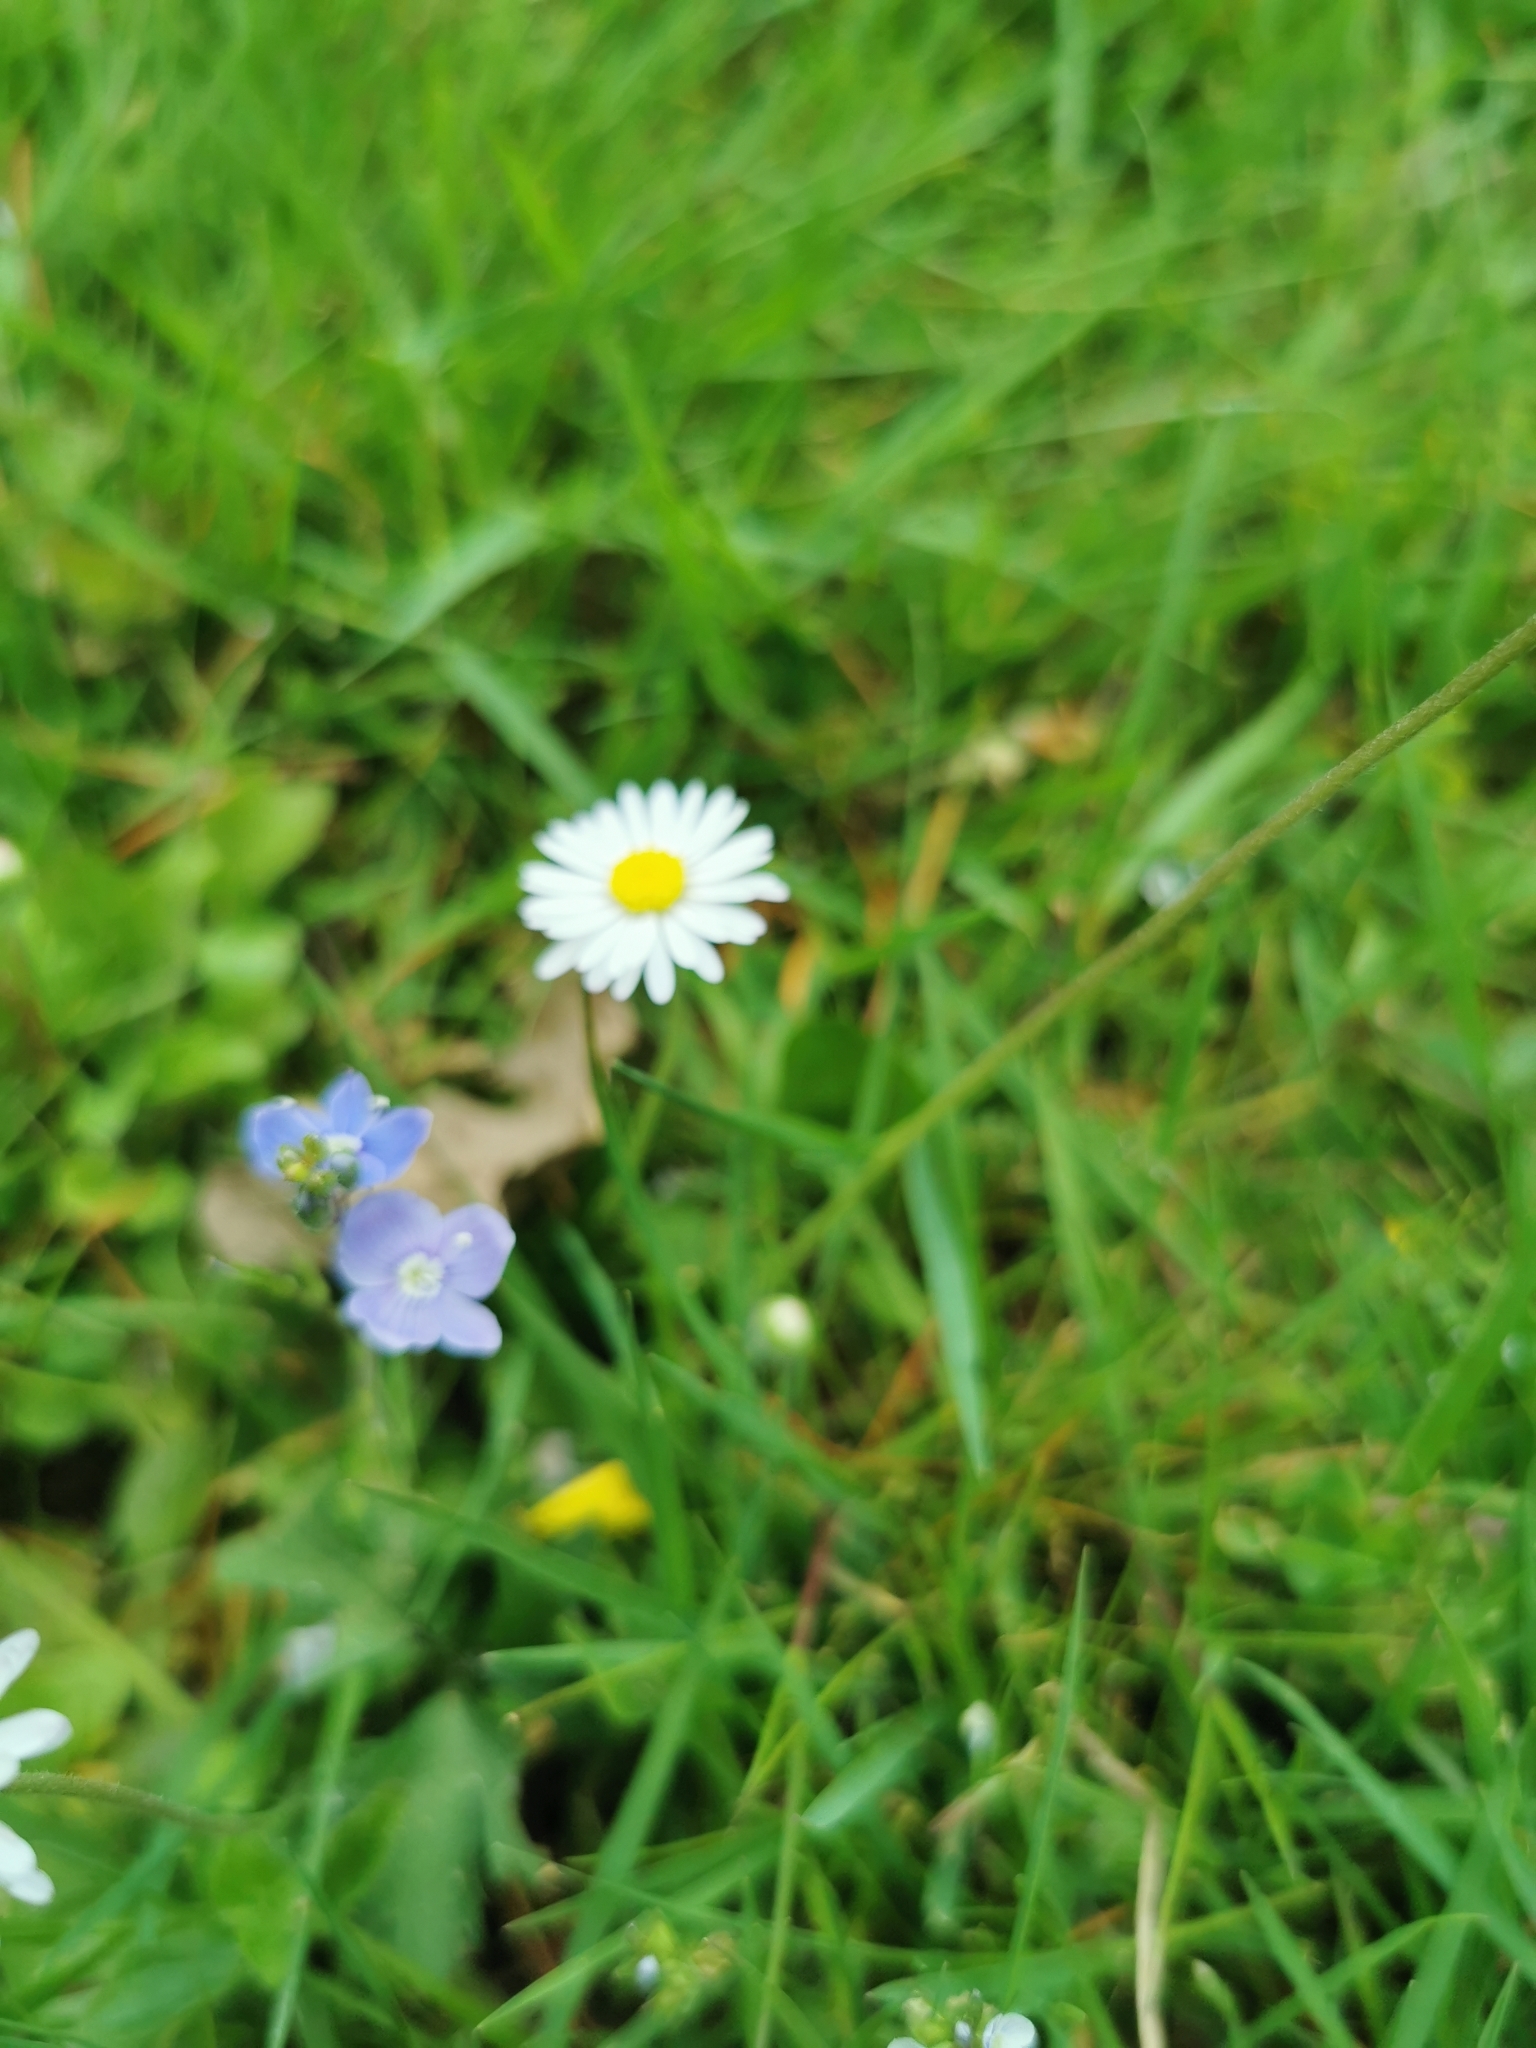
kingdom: Plantae
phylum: Tracheophyta
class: Magnoliopsida
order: Asterales
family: Asteraceae
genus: Bellis
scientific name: Bellis perennis
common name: Lawndaisy
